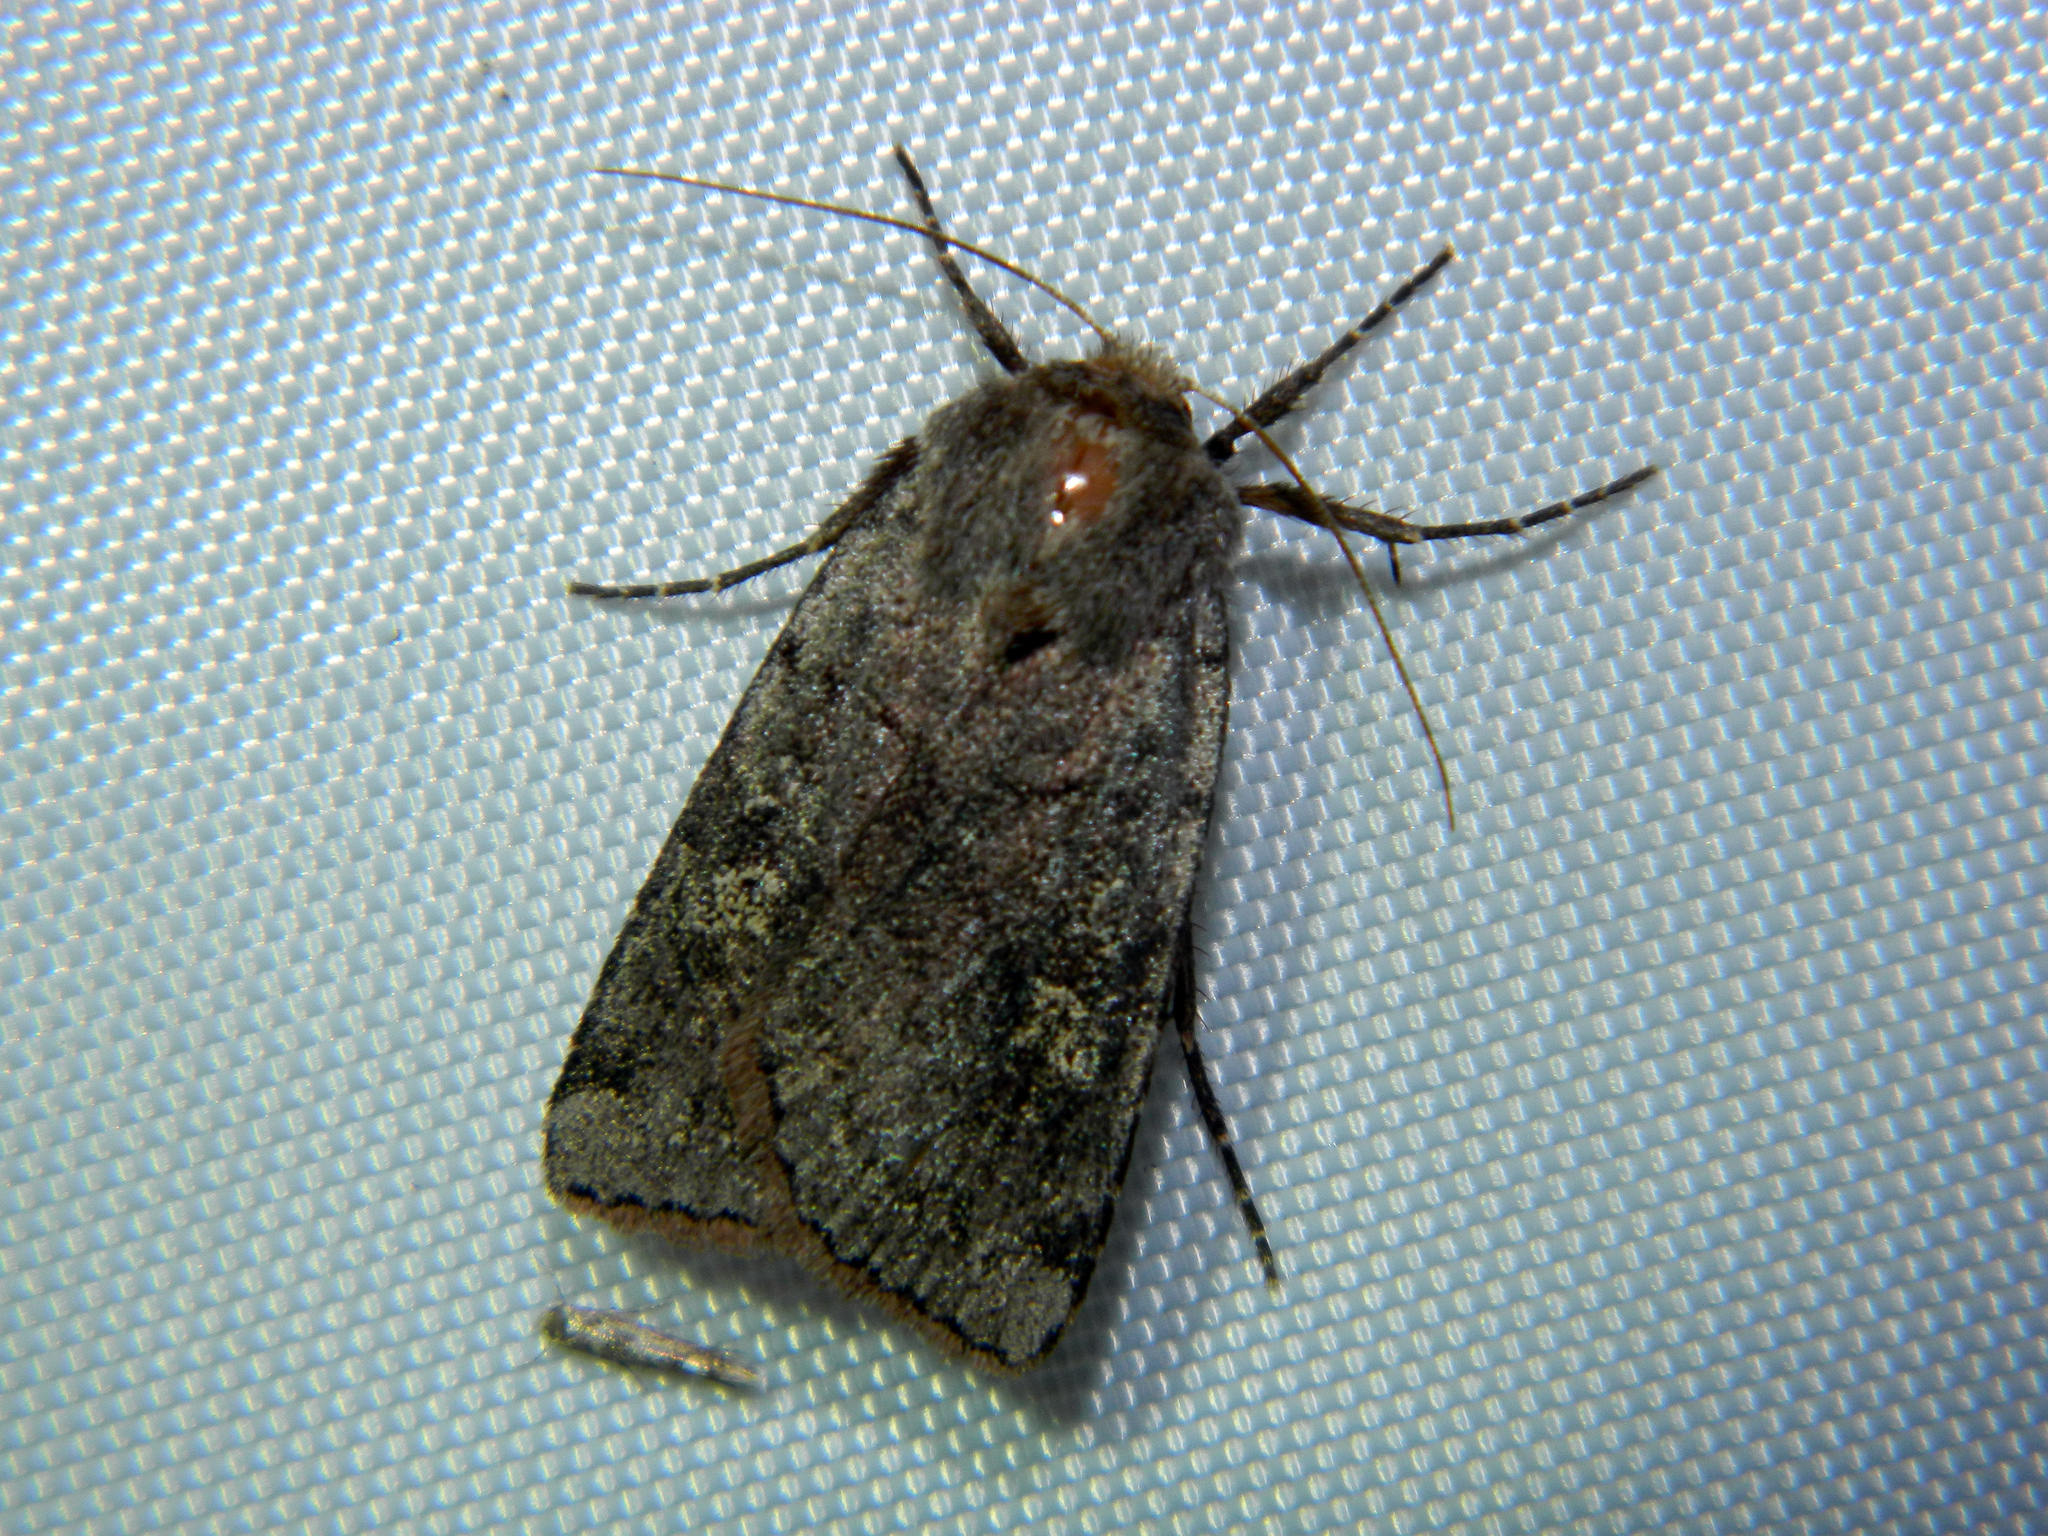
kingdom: Animalia
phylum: Arthropoda
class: Insecta
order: Lepidoptera
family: Noctuidae
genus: Cerastis
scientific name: Cerastis fishii
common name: Fish's dart
